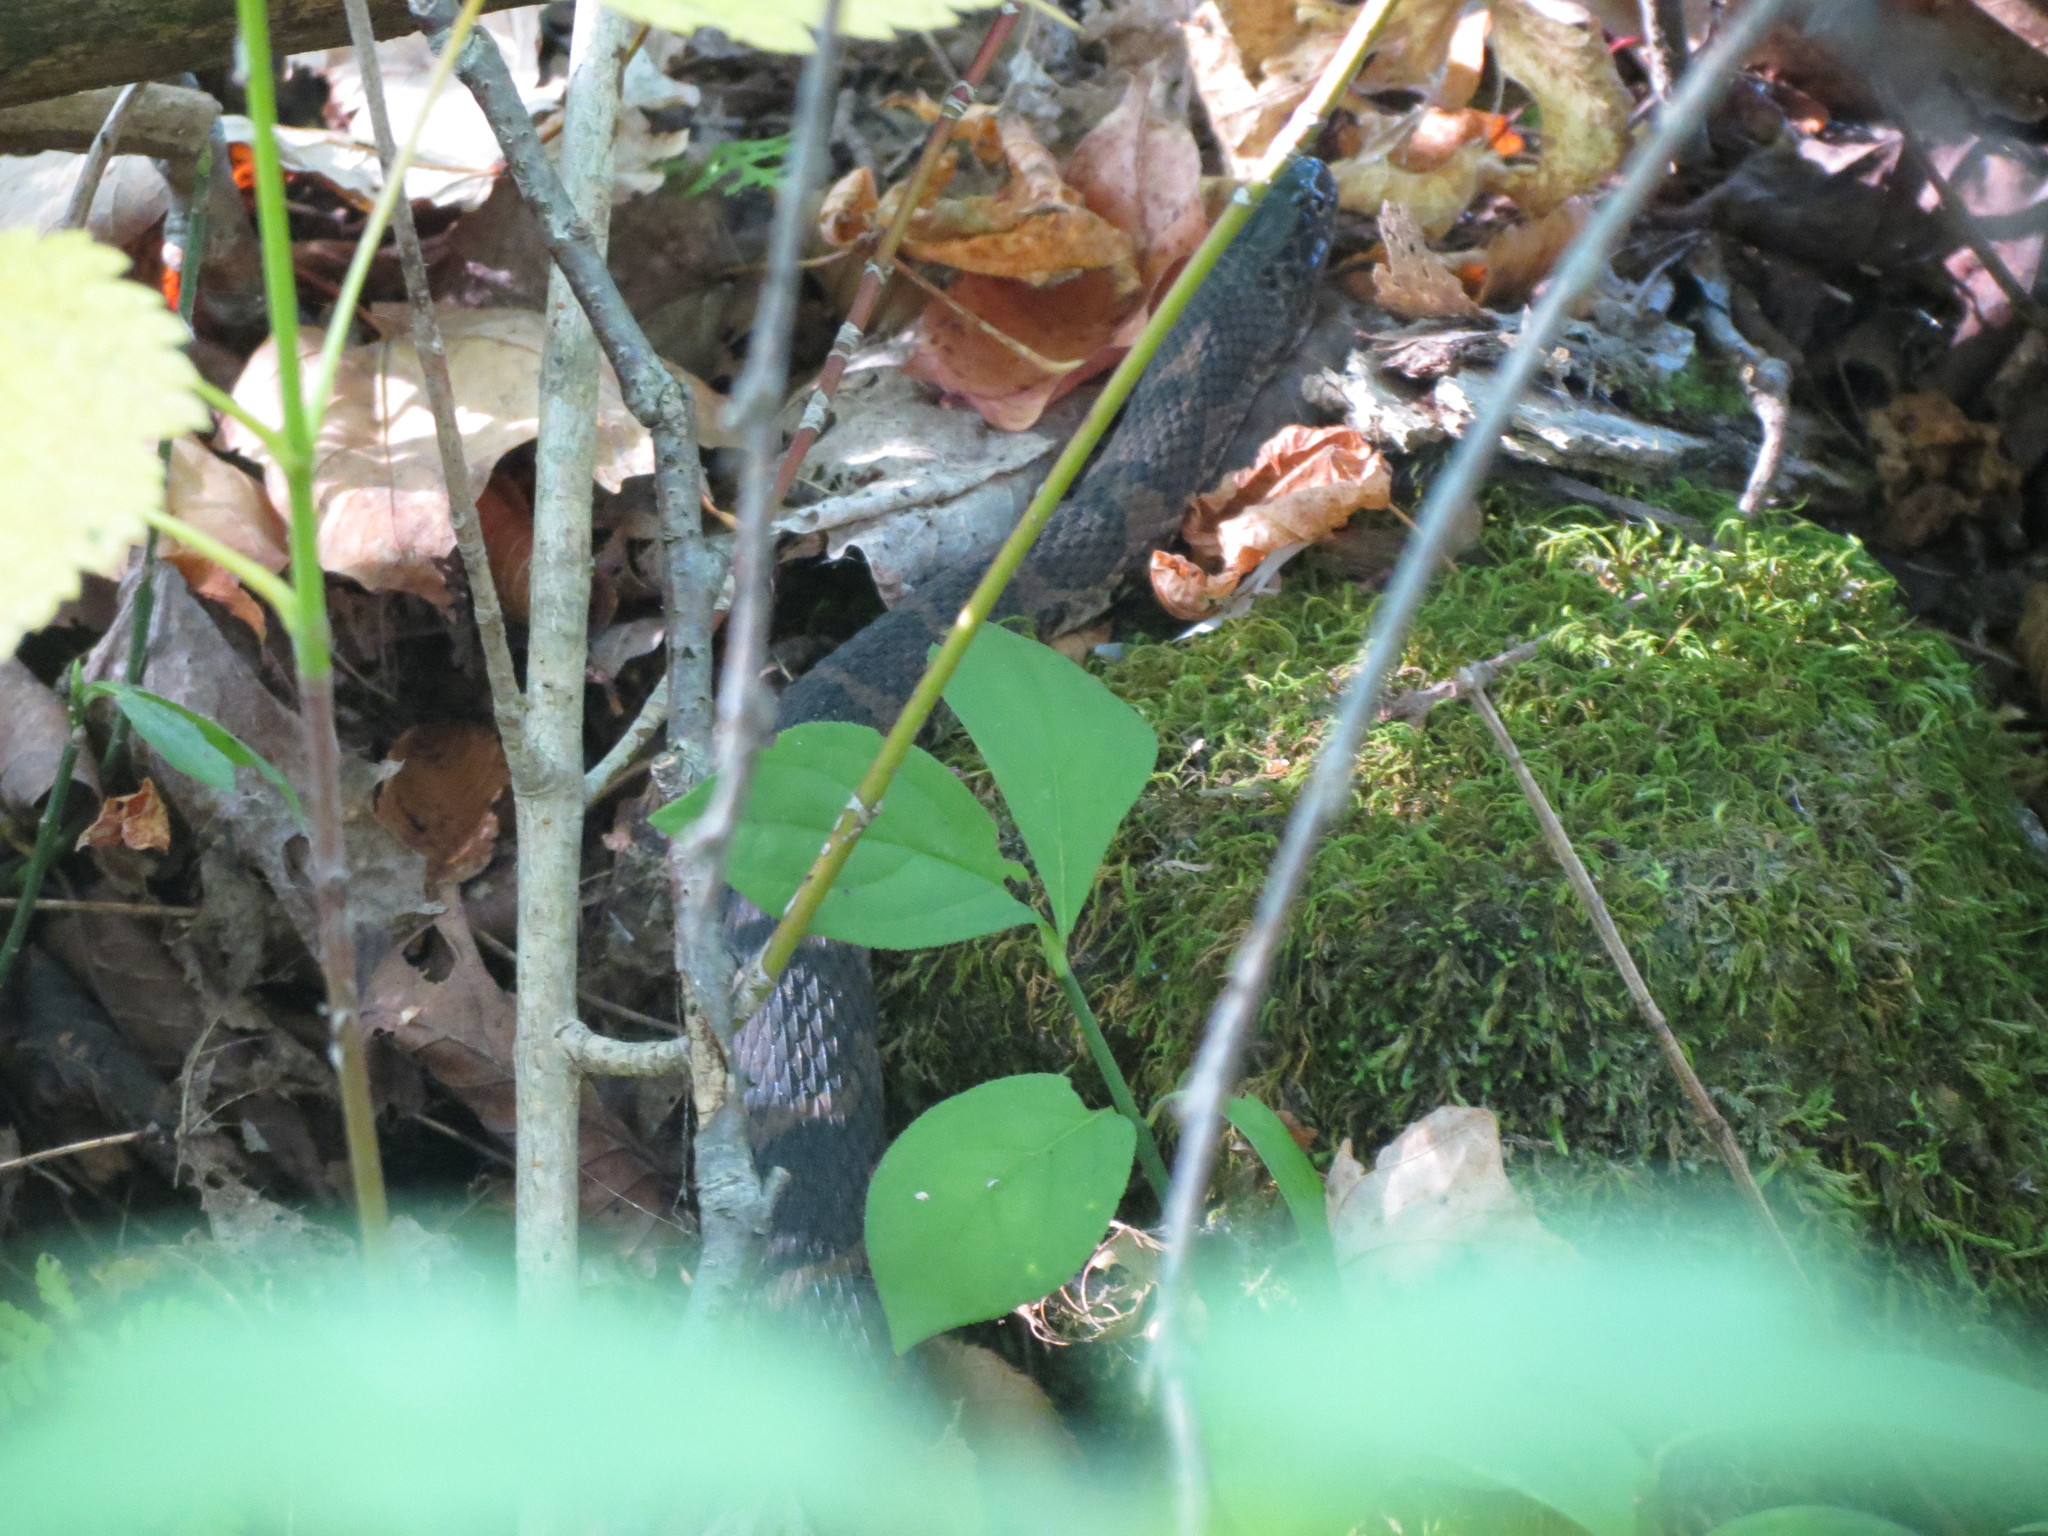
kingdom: Animalia
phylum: Chordata
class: Squamata
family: Colubridae
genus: Nerodia
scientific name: Nerodia sipedon
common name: Northern water snake
